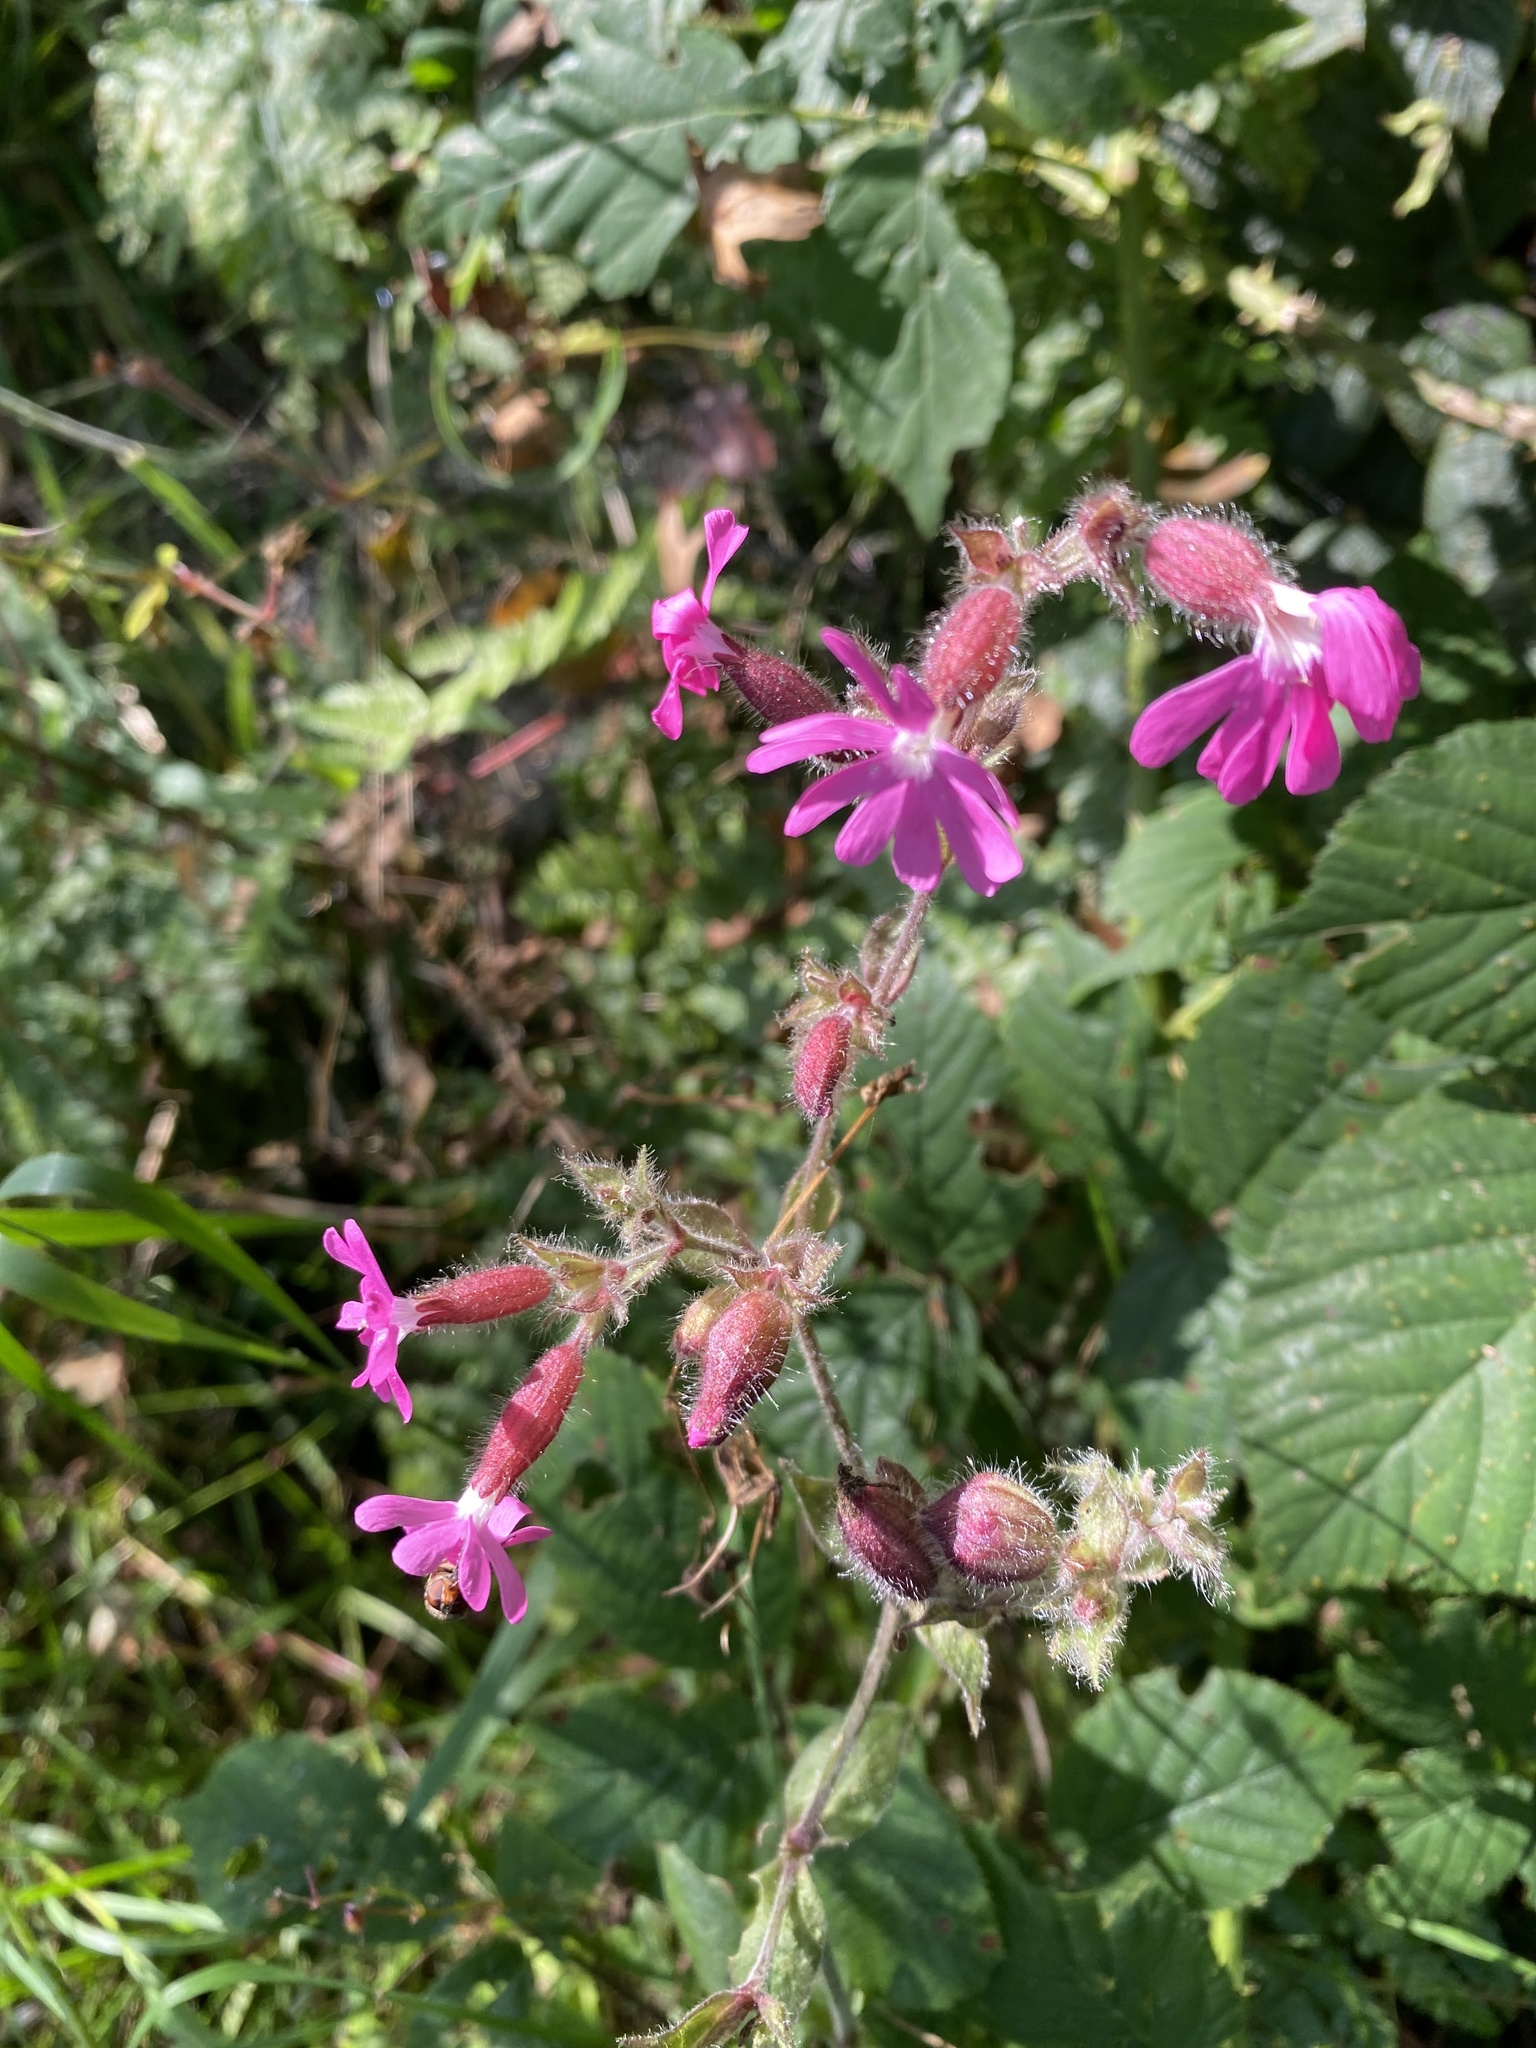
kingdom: Plantae
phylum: Tracheophyta
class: Magnoliopsida
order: Caryophyllales
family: Caryophyllaceae
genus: Silene
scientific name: Silene dioica
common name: Red campion
